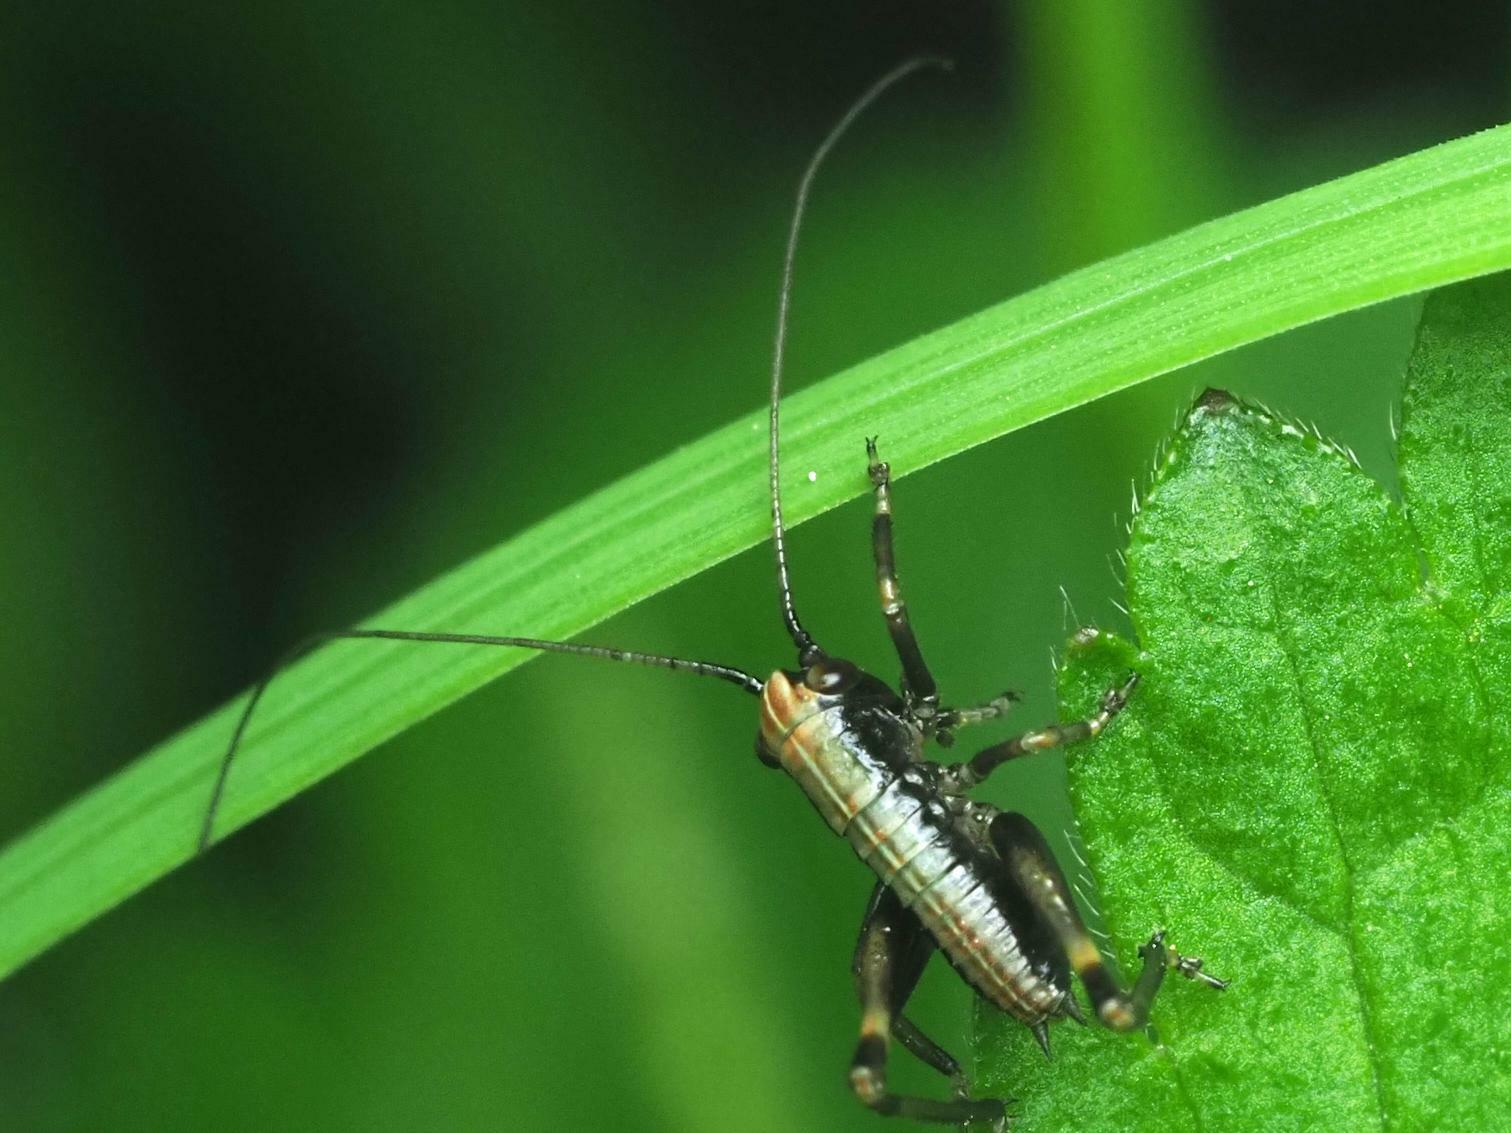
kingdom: Animalia
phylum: Arthropoda
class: Insecta
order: Orthoptera
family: Tettigoniidae
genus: Pholidoptera
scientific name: Pholidoptera griseoaptera
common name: Dark bush-cricket
